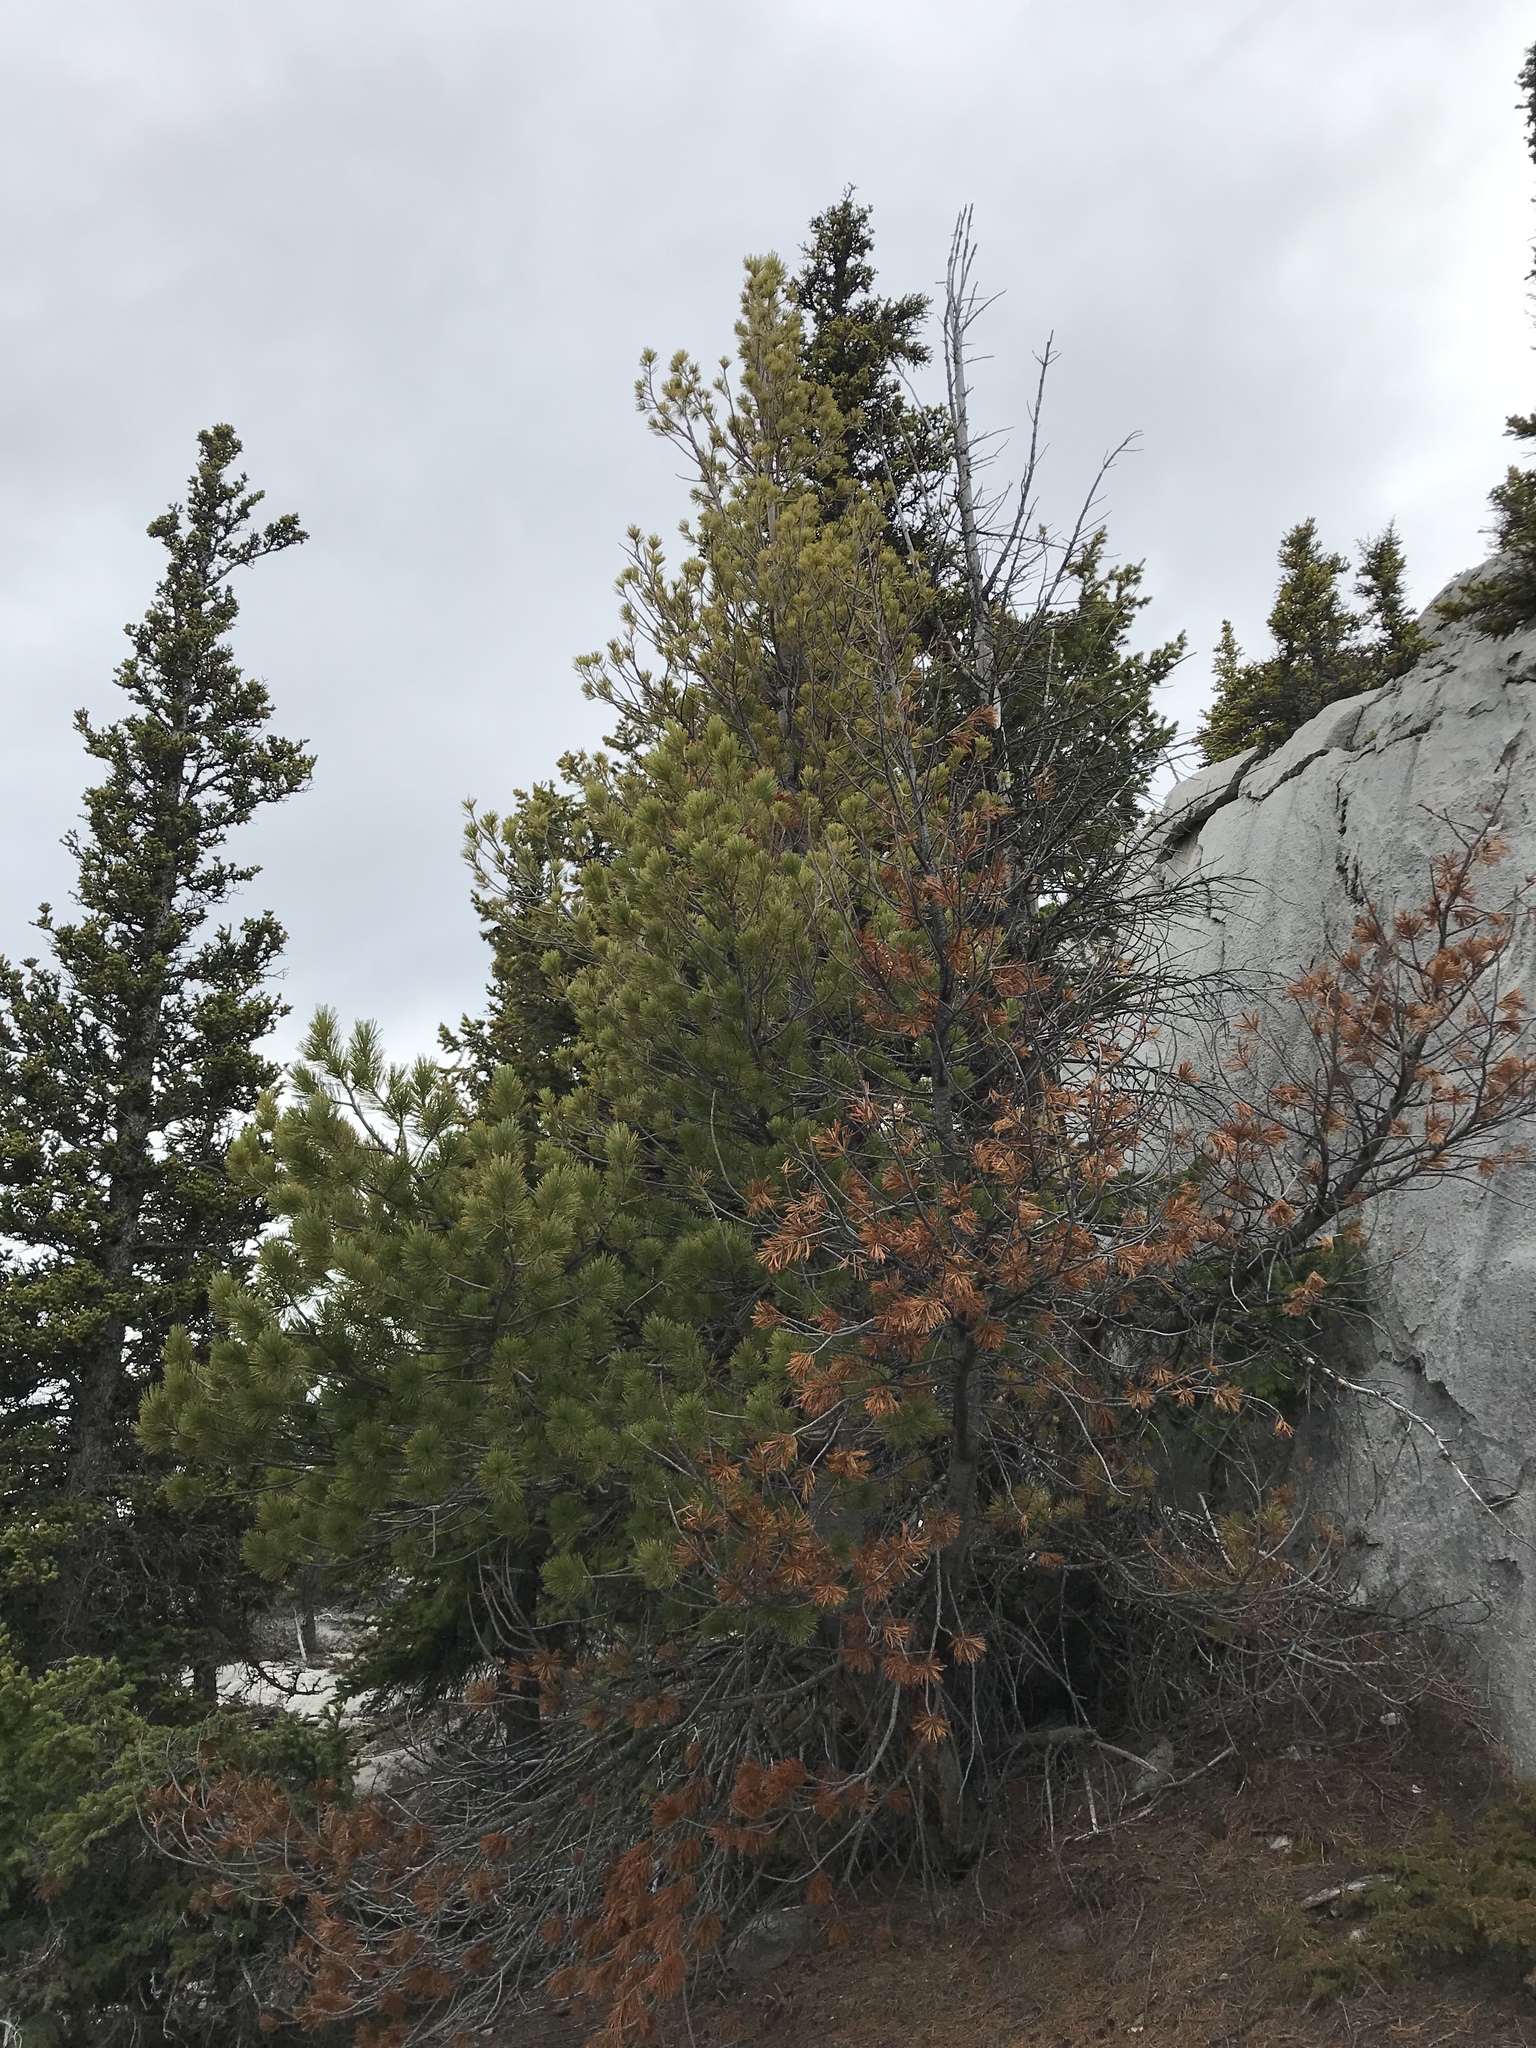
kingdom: Plantae
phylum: Tracheophyta
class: Pinopsida
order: Pinales
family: Pinaceae
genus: Pinus
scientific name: Pinus albicaulis
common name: Whitebark pine
